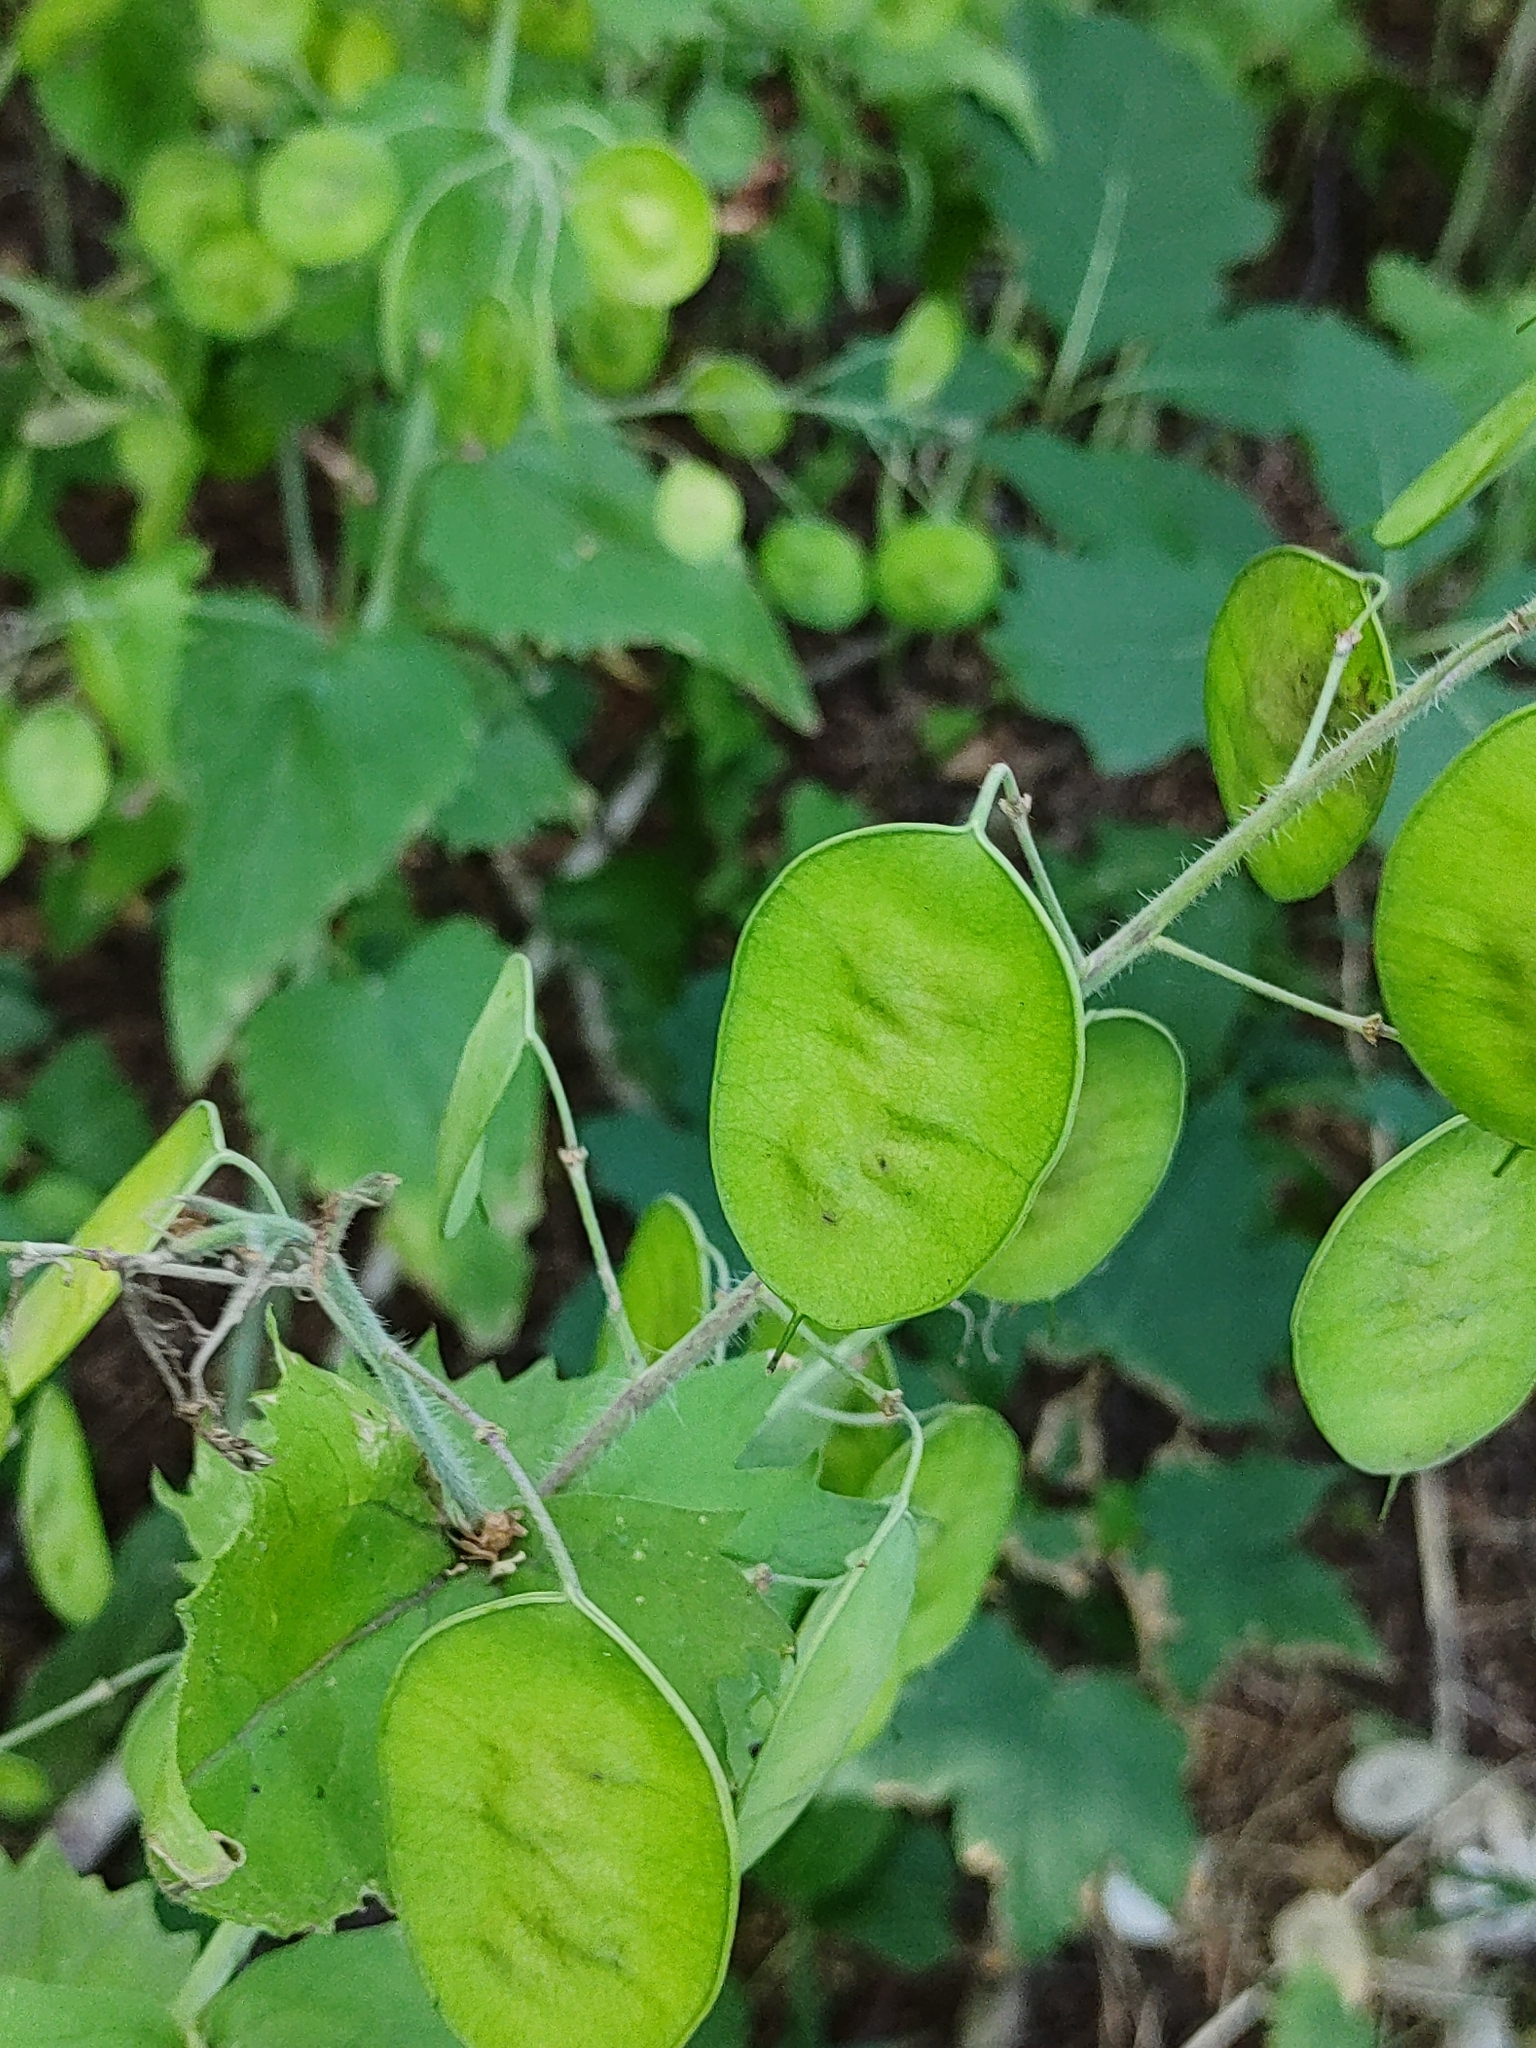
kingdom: Plantae
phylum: Tracheophyta
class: Magnoliopsida
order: Brassicales
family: Brassicaceae
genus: Lunaria
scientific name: Lunaria annua
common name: Honesty
